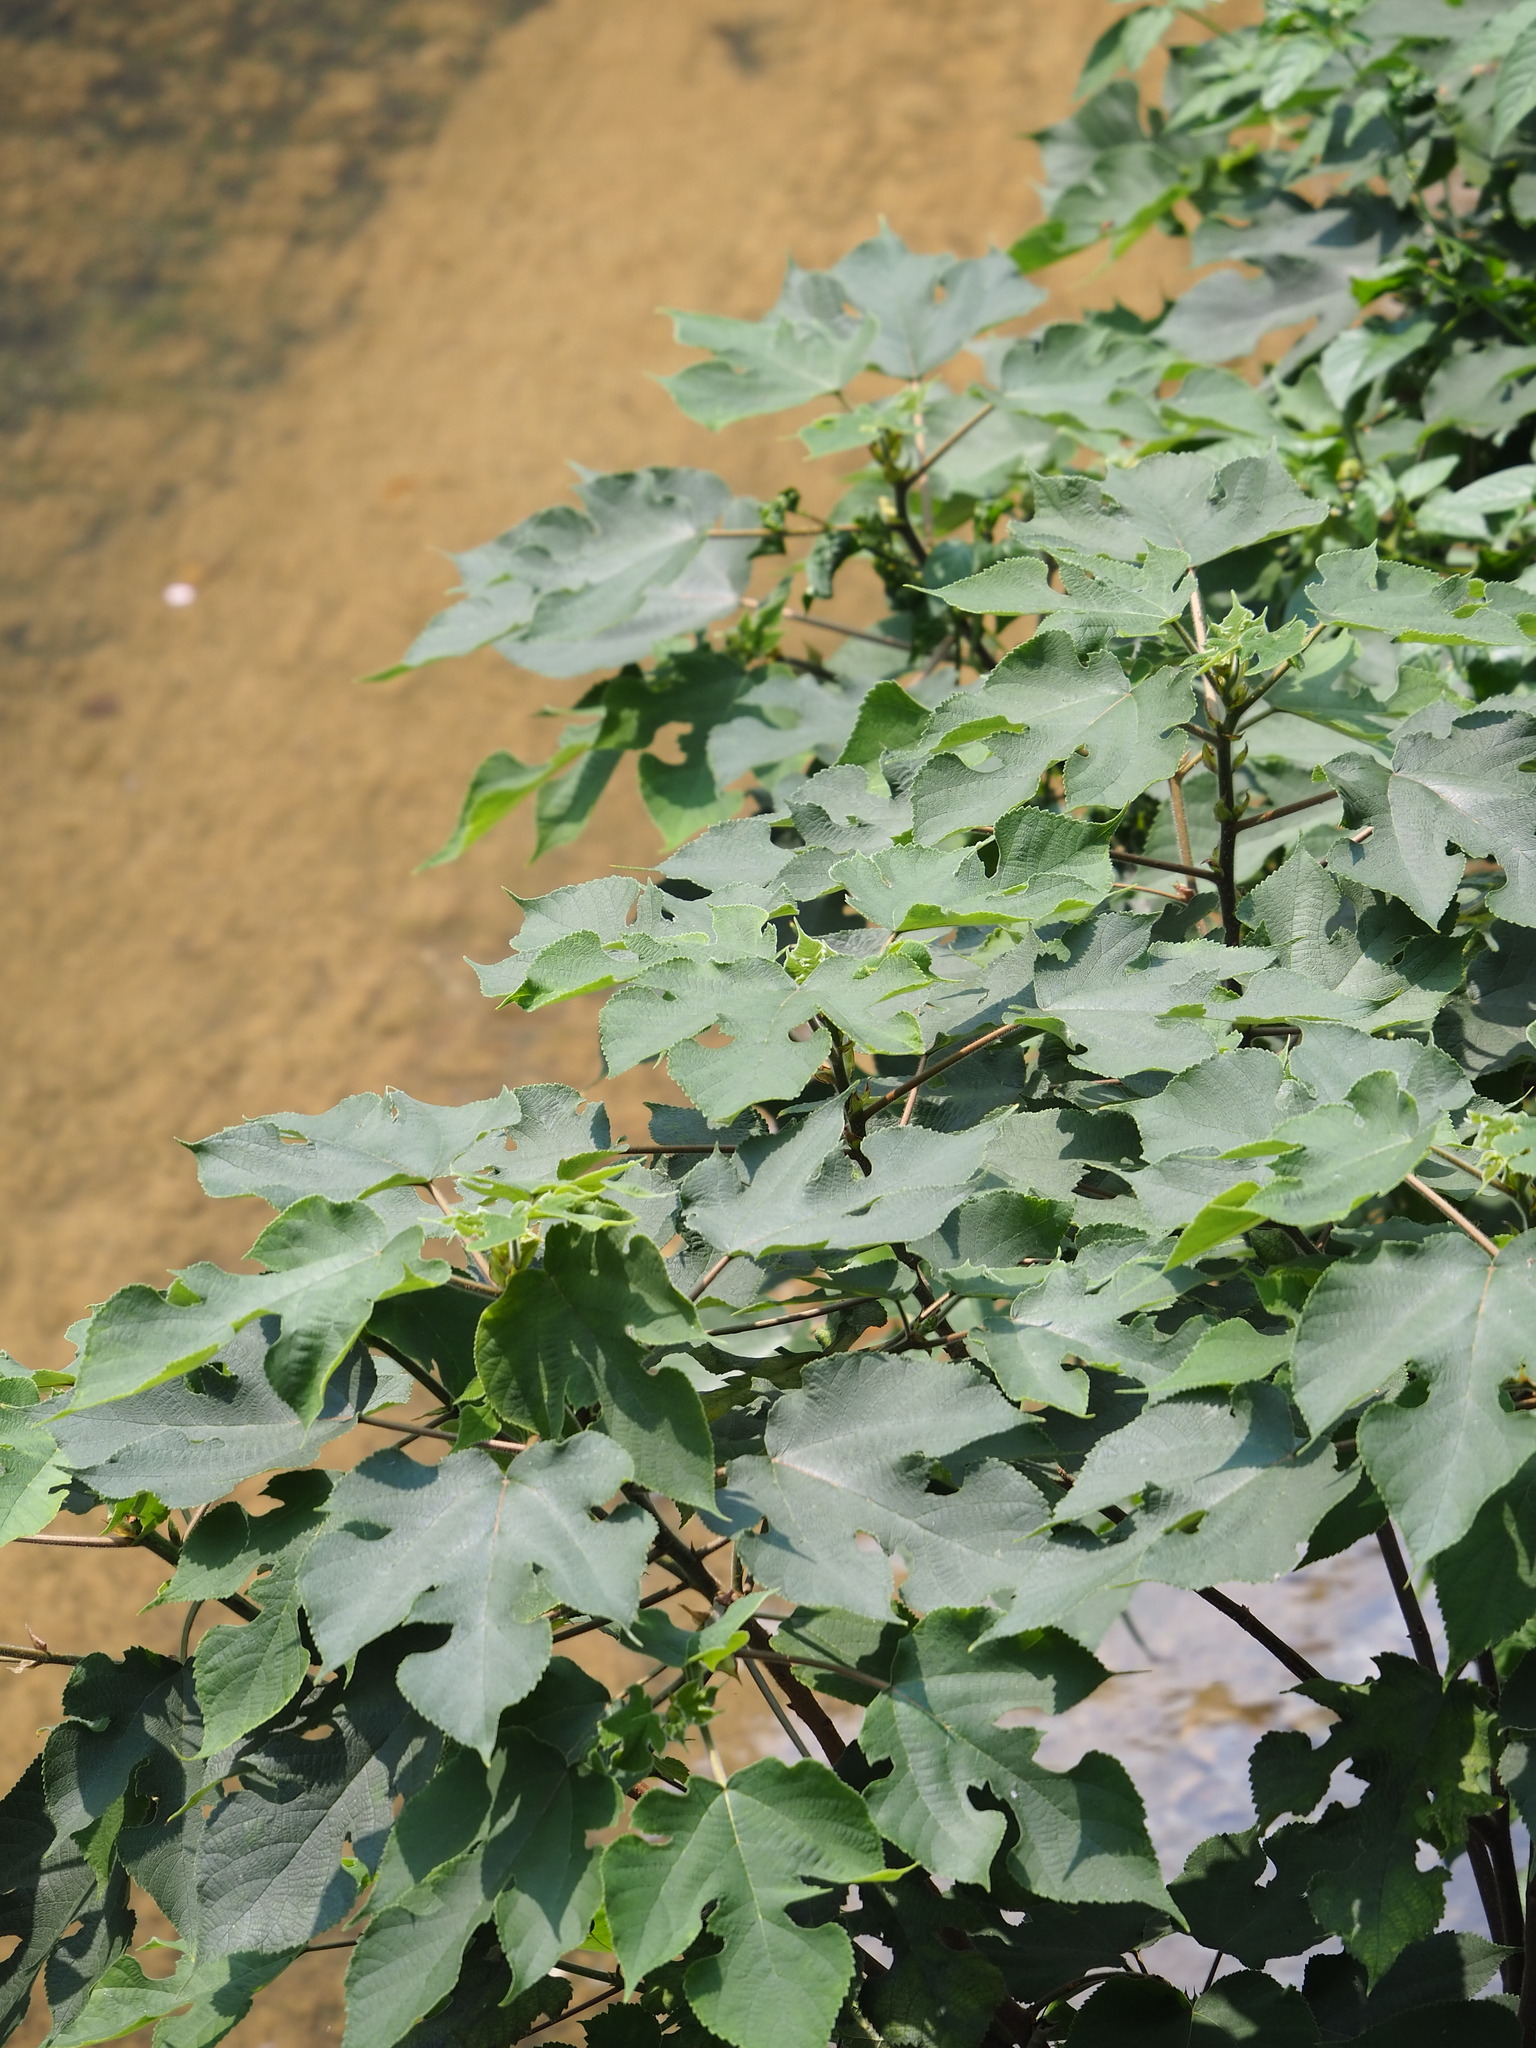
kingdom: Plantae
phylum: Tracheophyta
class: Magnoliopsida
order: Rosales
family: Moraceae
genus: Broussonetia
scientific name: Broussonetia papyrifera
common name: Paper mulberry
